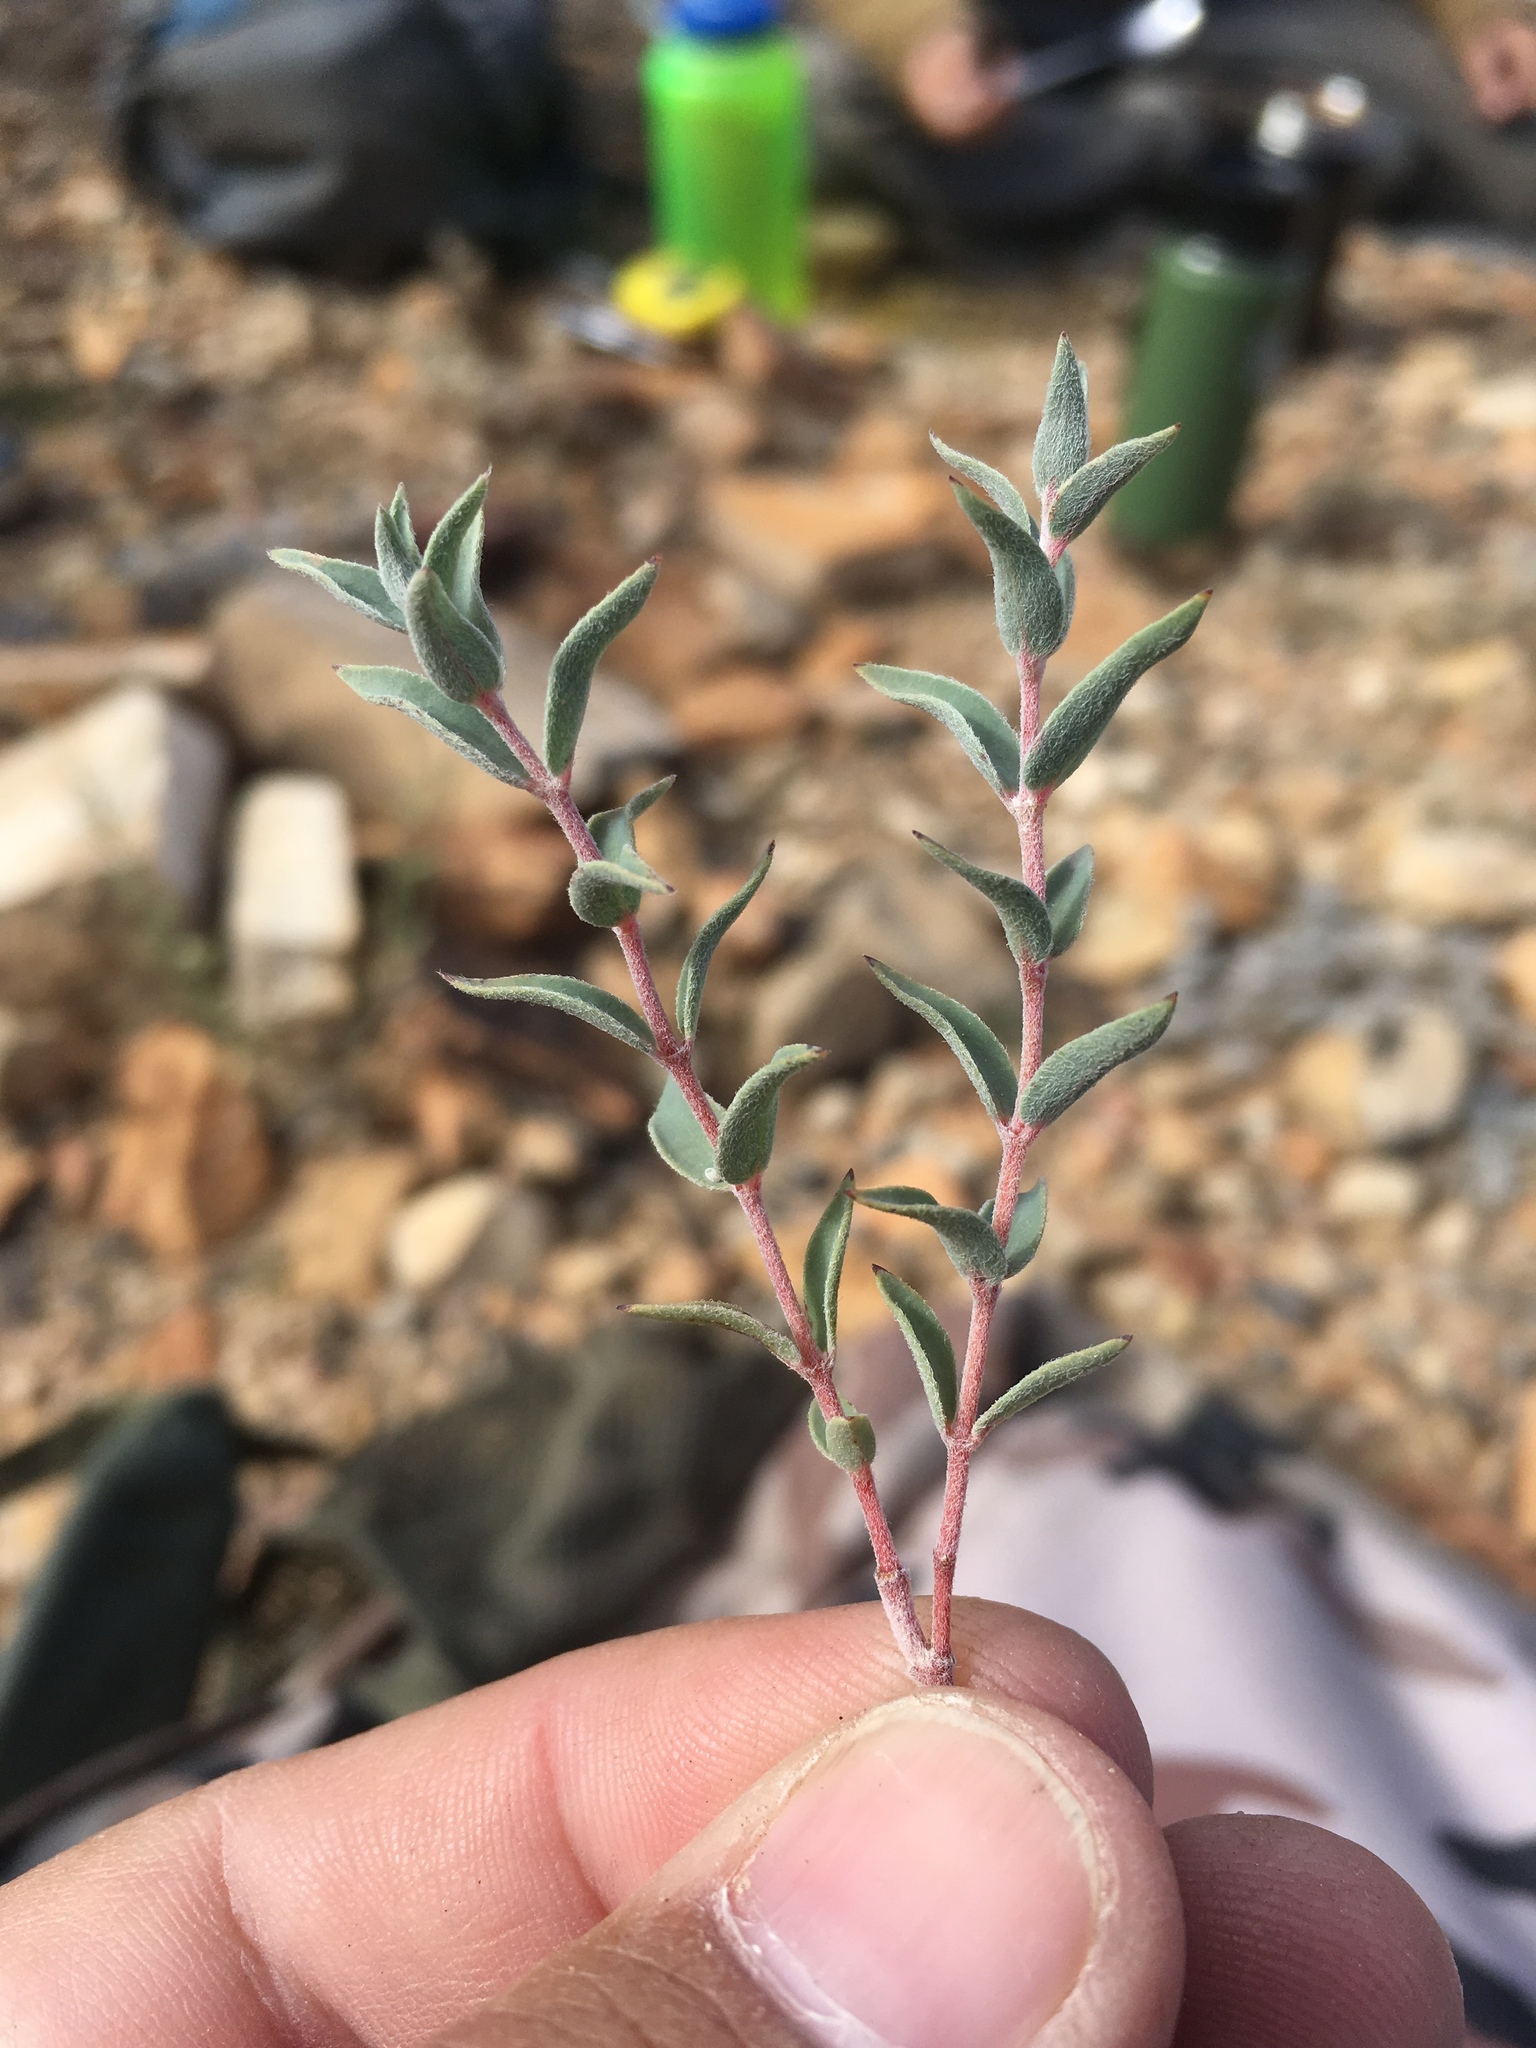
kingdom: Plantae
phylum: Tracheophyta
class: Magnoliopsida
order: Malpighiales
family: Euphorbiaceae
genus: Euphorbia
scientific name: Euphorbia acuta
